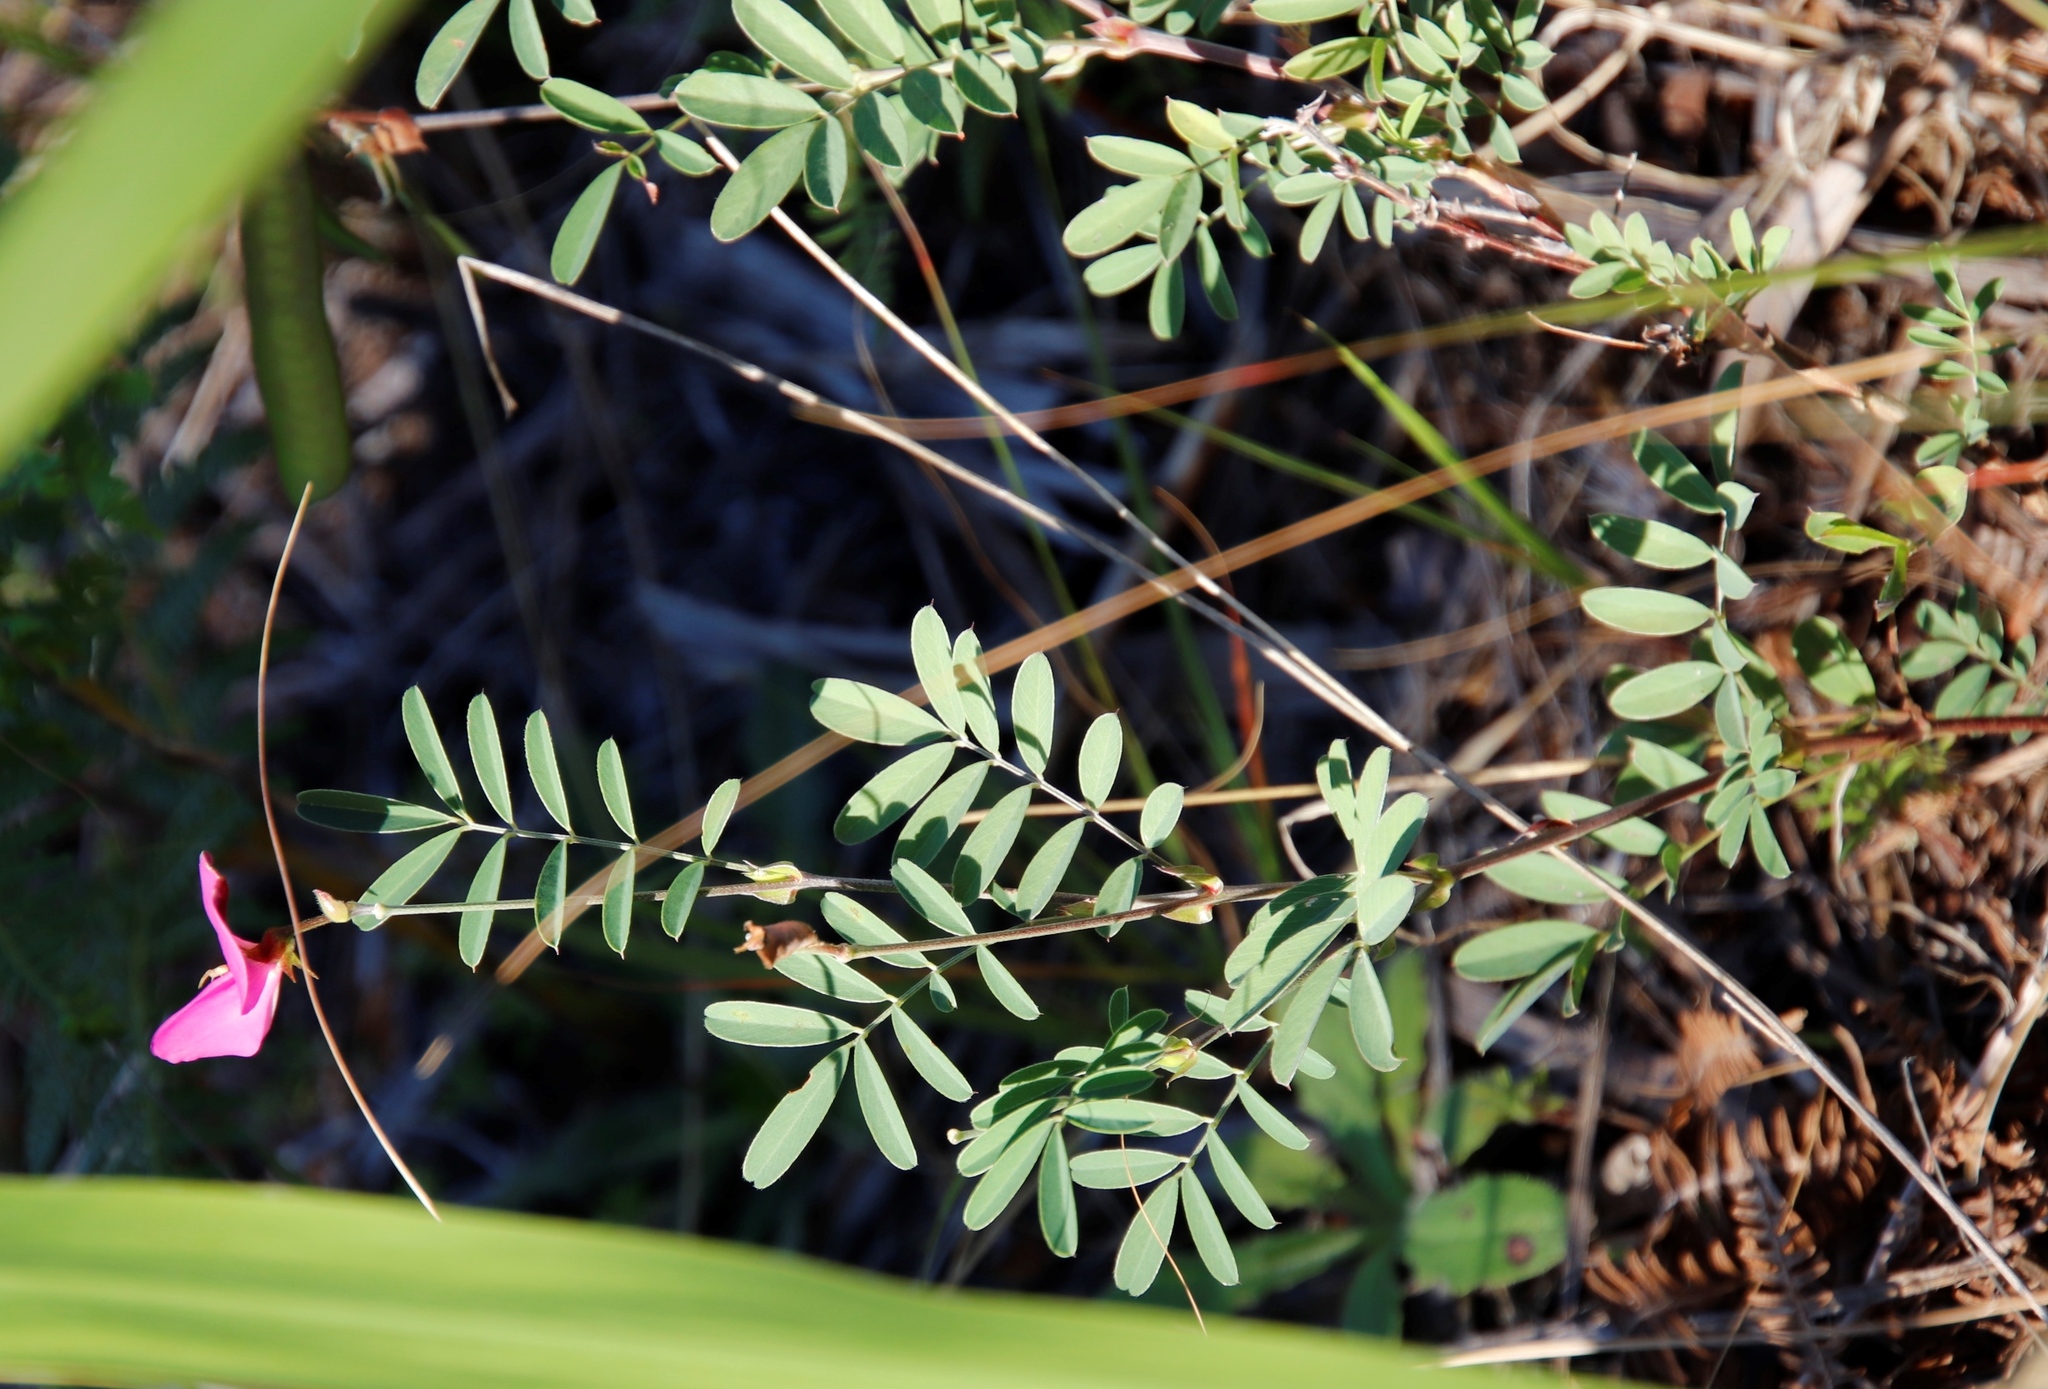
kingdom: Plantae
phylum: Tracheophyta
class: Magnoliopsida
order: Fabales
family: Fabaceae
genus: Tephrosia
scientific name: Tephrosia grandiflora
